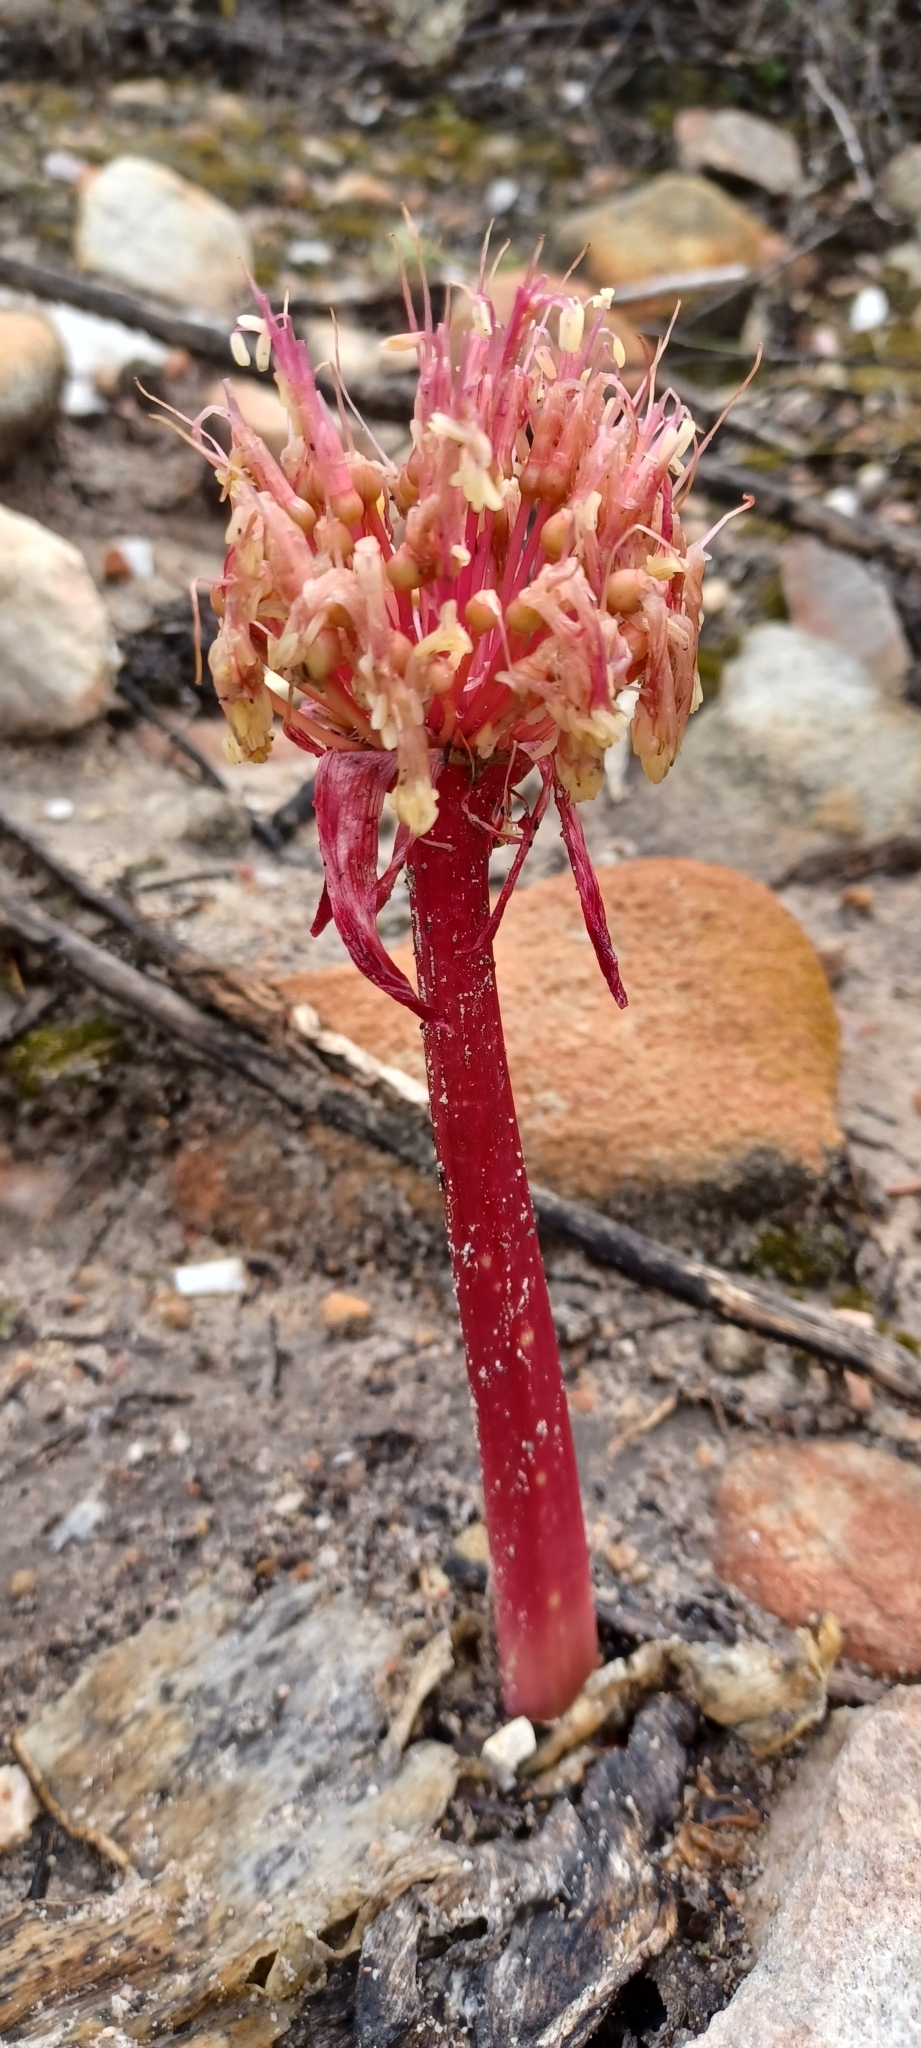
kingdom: Plantae
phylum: Tracheophyta
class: Liliopsida
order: Asparagales
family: Amaryllidaceae
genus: Haemanthus
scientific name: Haemanthus sanguineus
